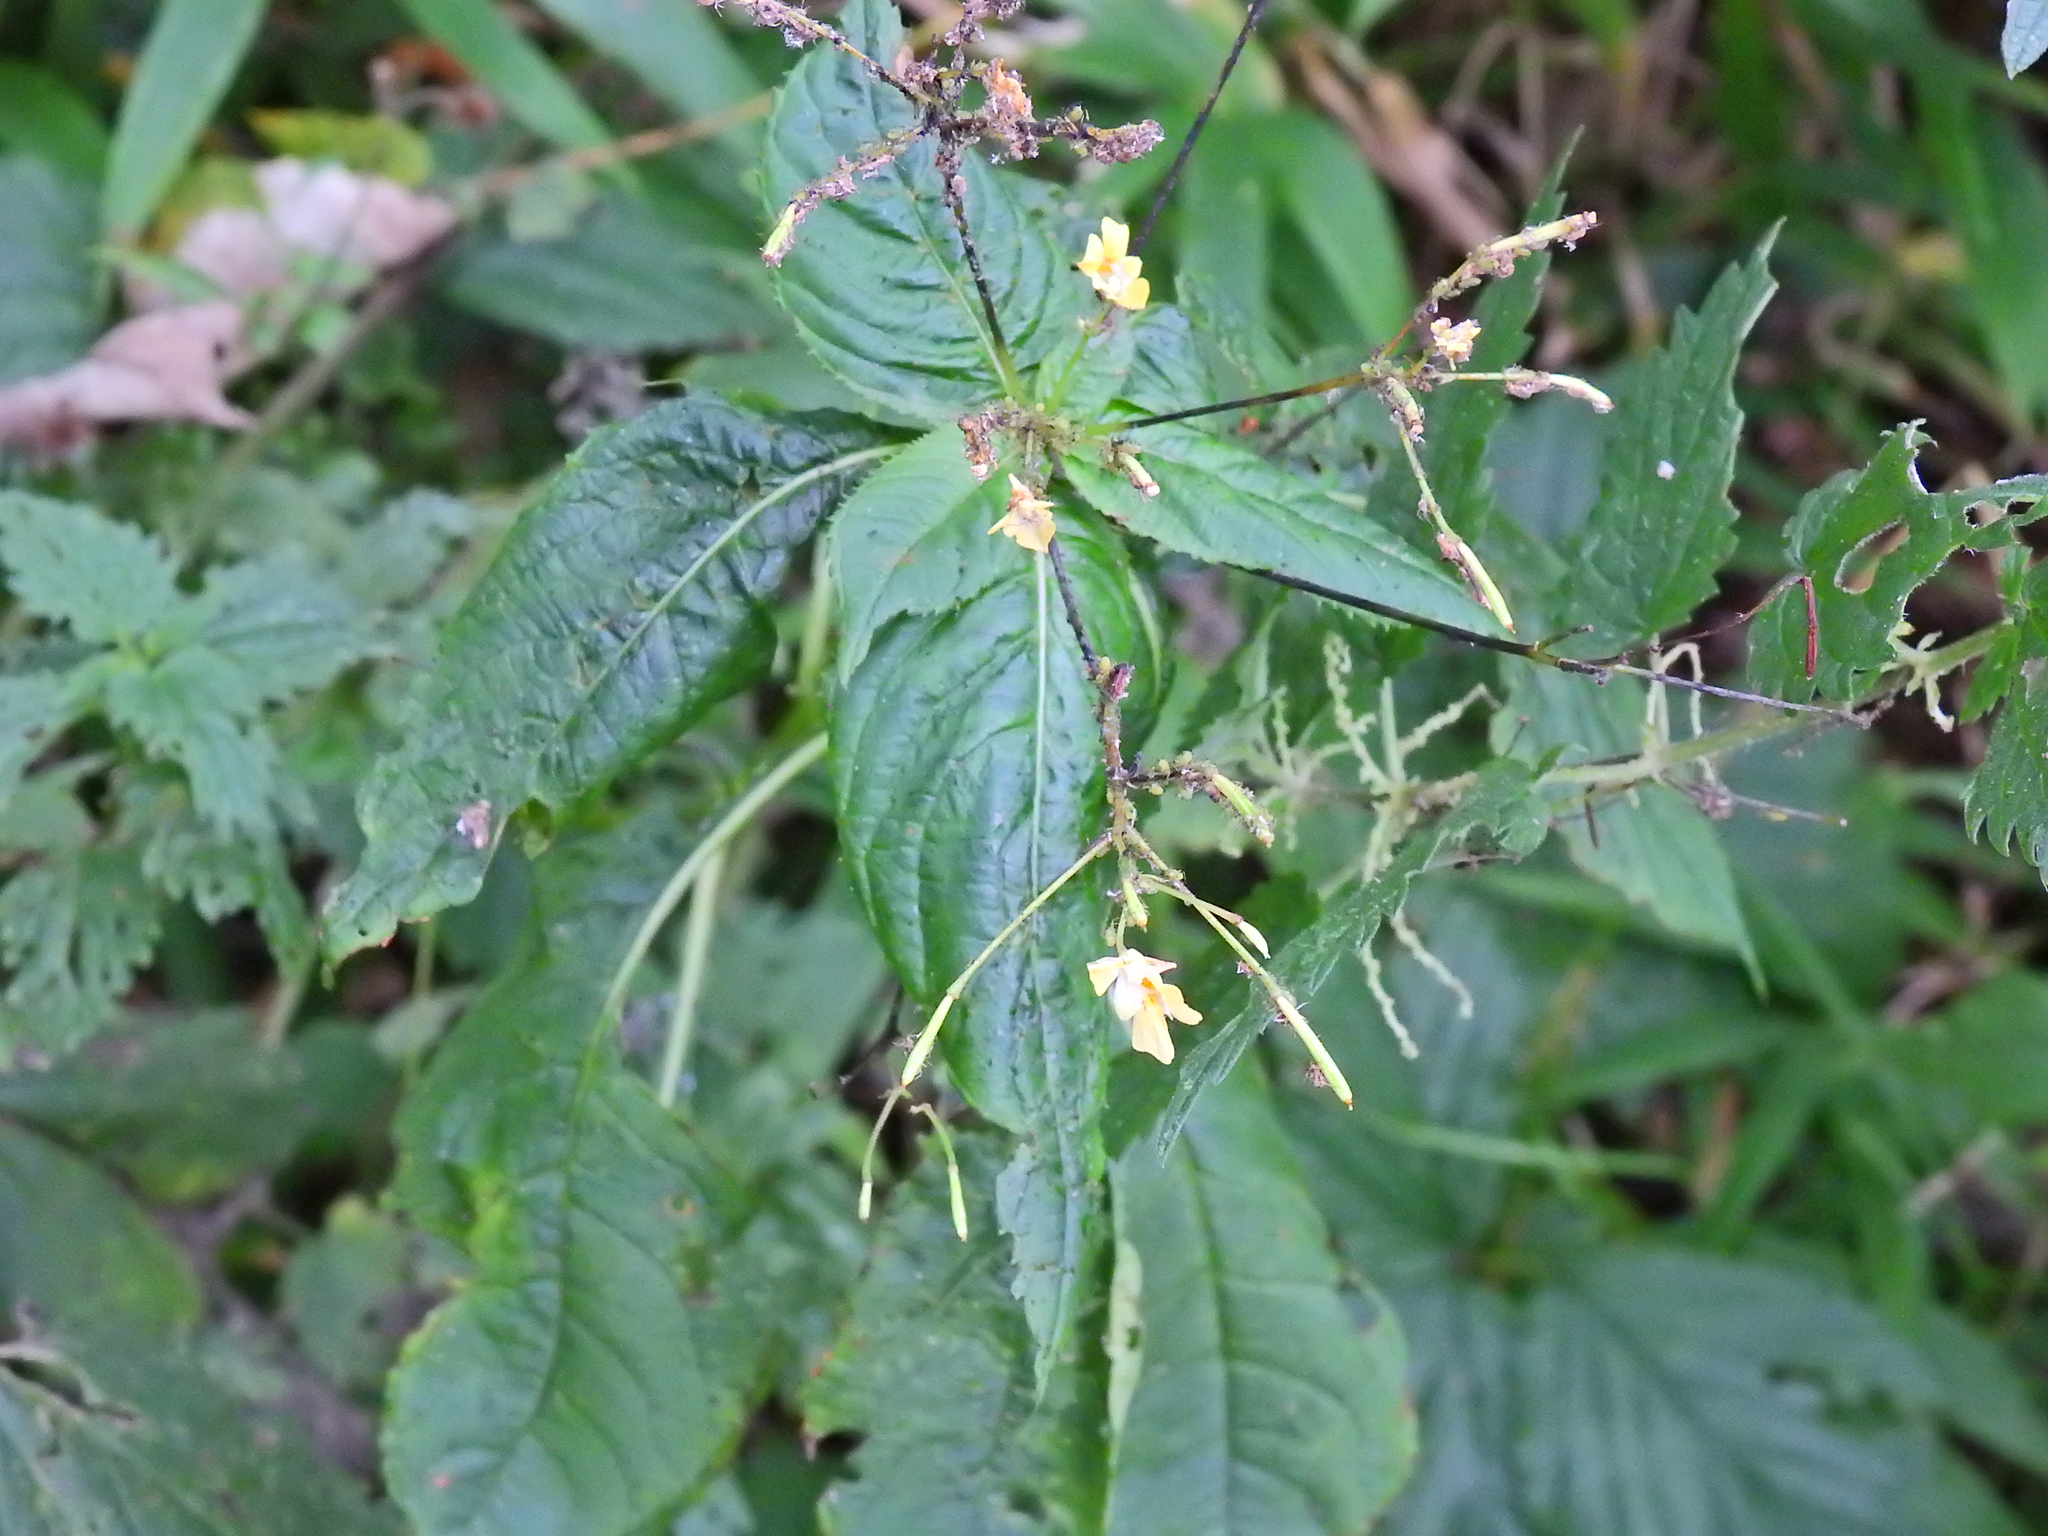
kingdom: Plantae
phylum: Tracheophyta
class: Magnoliopsida
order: Ericales
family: Balsaminaceae
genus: Impatiens
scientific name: Impatiens parviflora
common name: Small balsam
